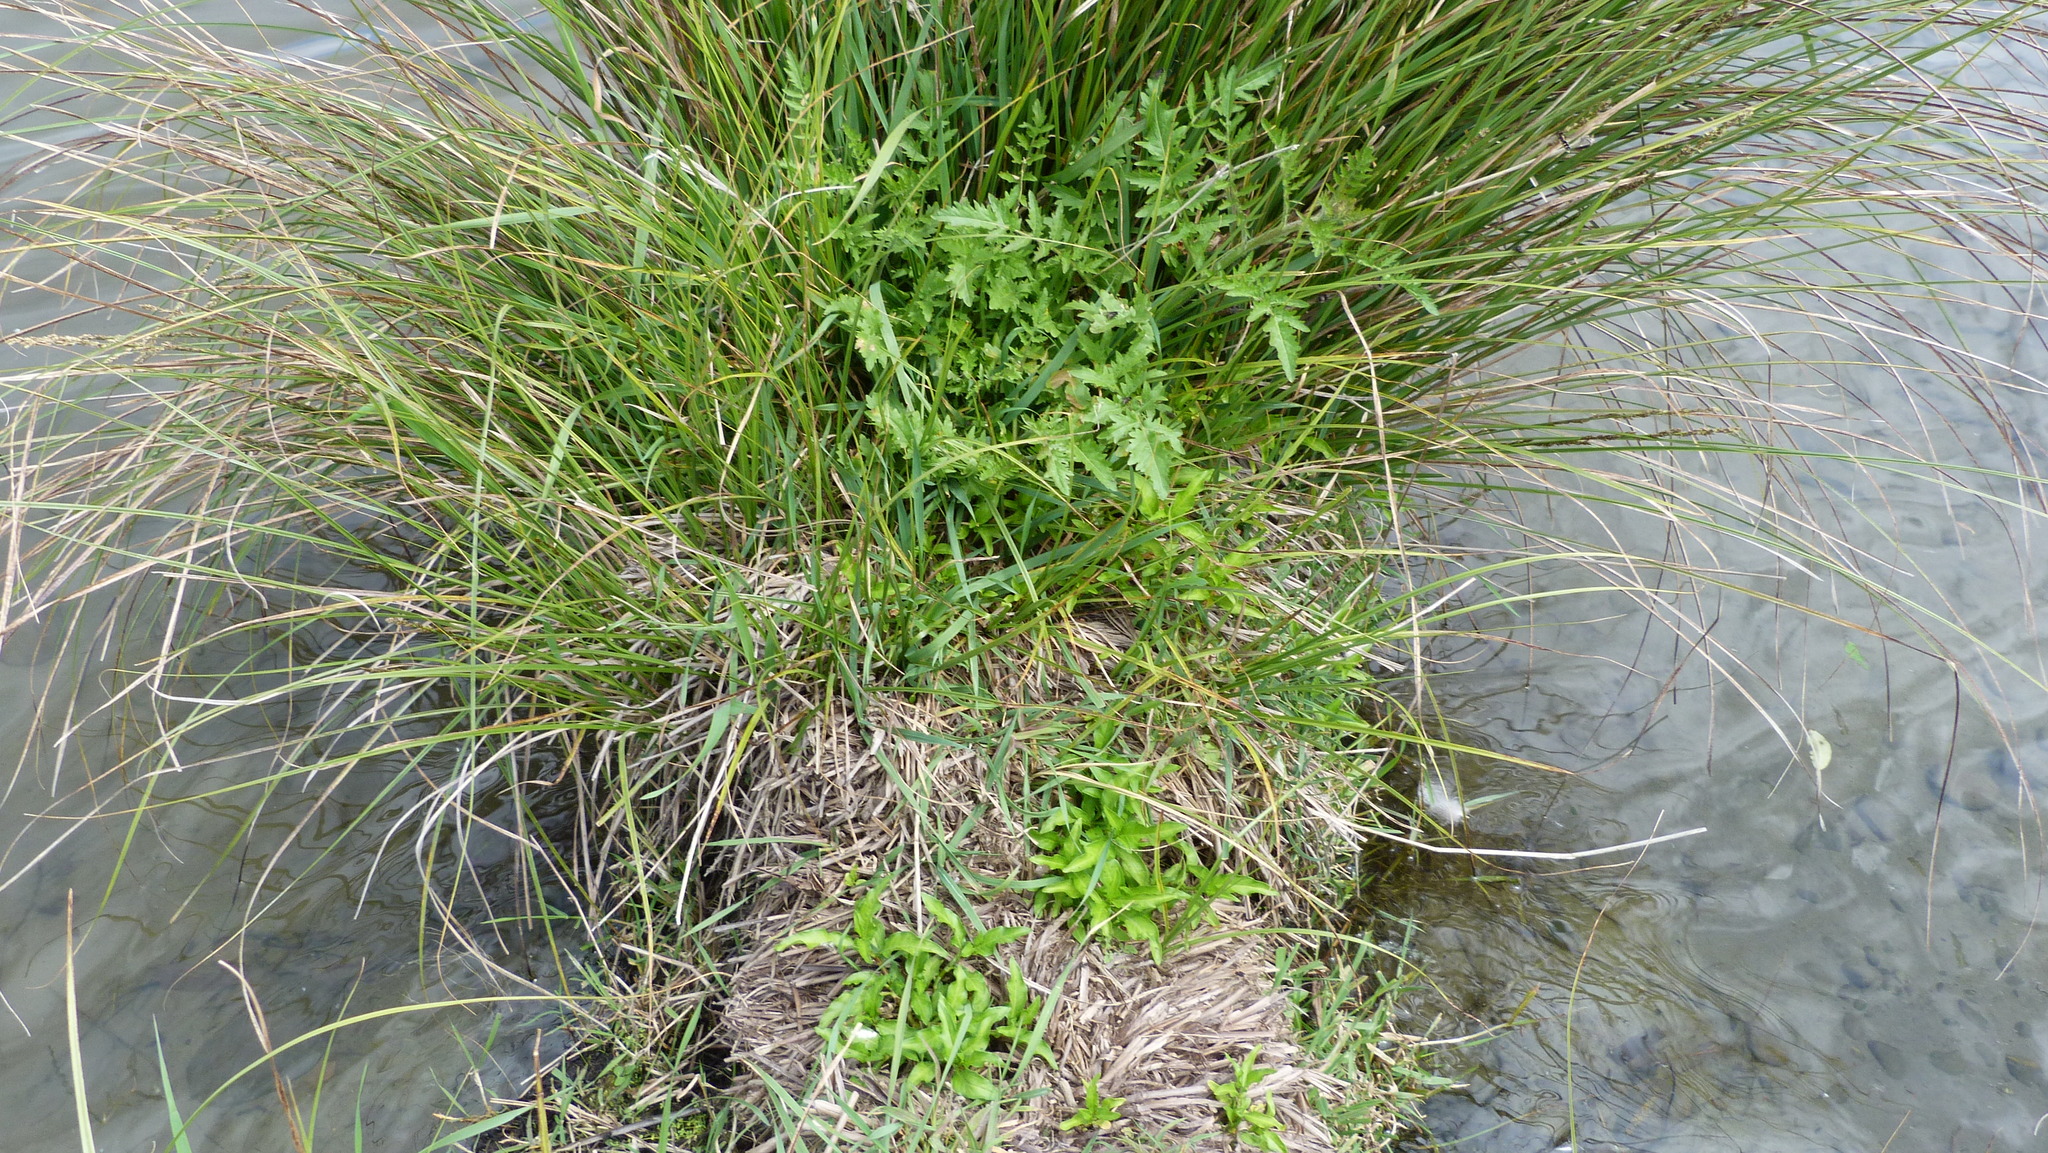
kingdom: Plantae
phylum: Tracheophyta
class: Magnoliopsida
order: Brassicales
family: Brassicaceae
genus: Rorippa
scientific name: Rorippa palustris
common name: Marsh yellow-cress
